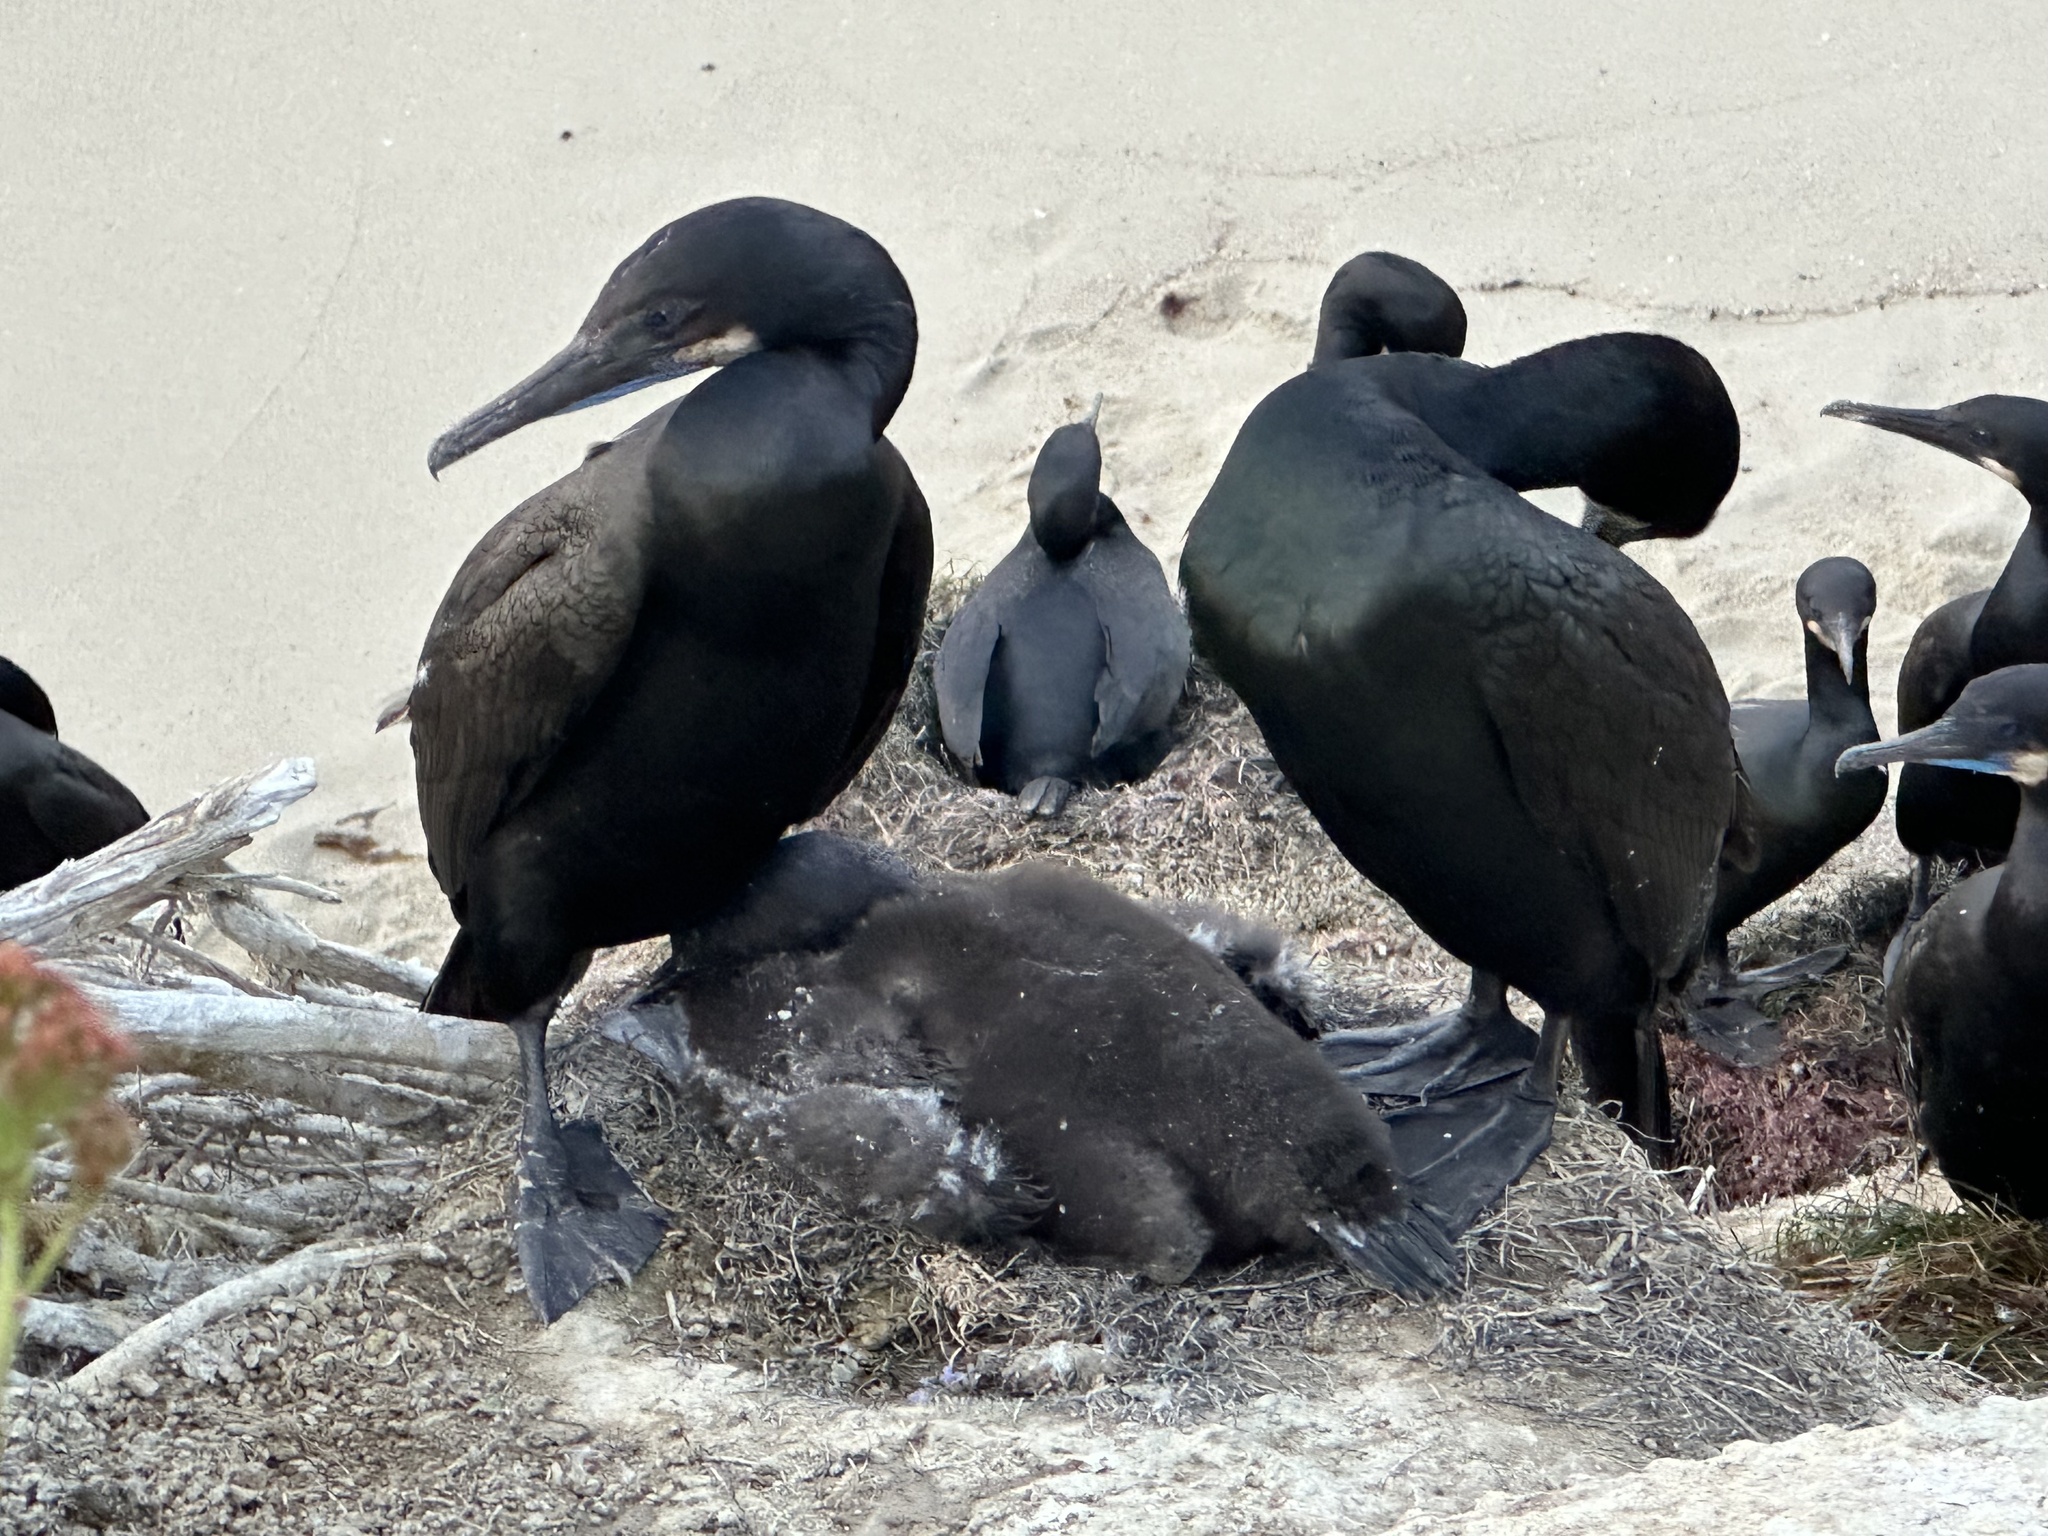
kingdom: Animalia
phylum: Chordata
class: Aves
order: Suliformes
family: Phalacrocoracidae
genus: Urile
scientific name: Urile penicillatus
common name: Brandt's cormorant
